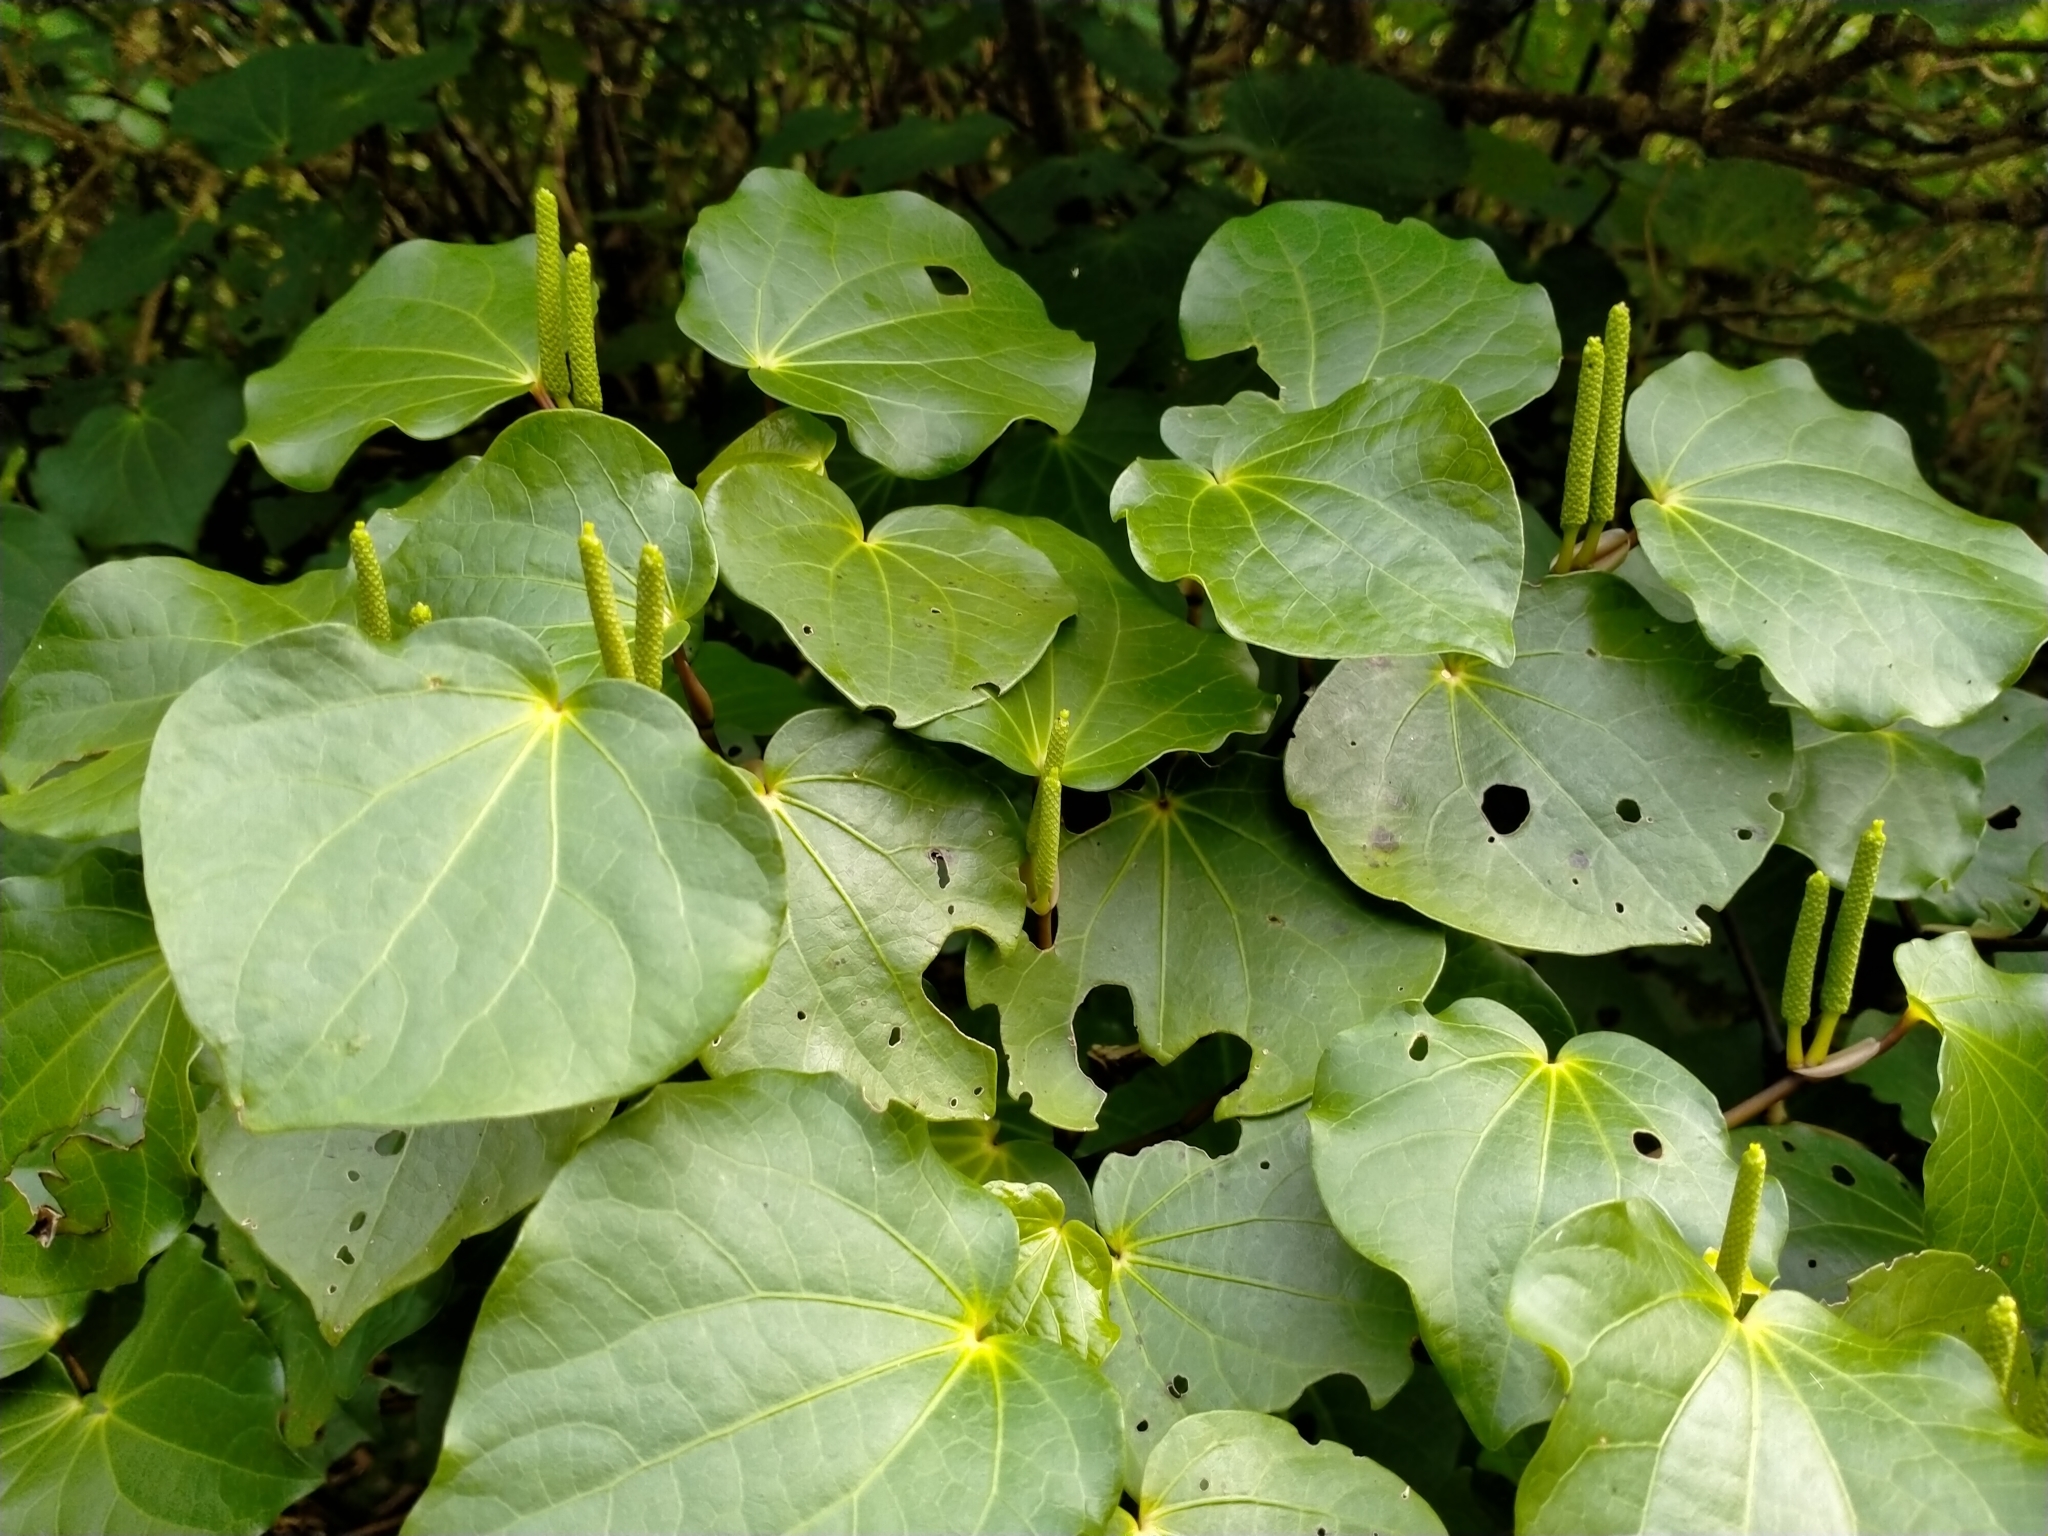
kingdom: Plantae
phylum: Tracheophyta
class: Magnoliopsida
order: Piperales
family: Piperaceae
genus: Macropiper
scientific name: Macropiper excelsum
